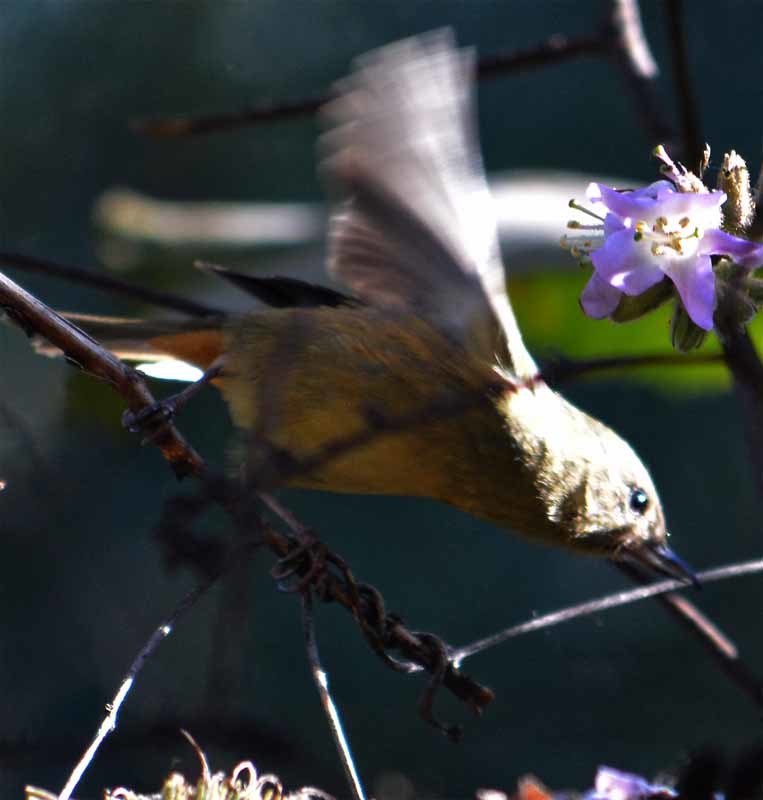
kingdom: Animalia
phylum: Chordata
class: Aves
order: Passeriformes
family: Thraupidae
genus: Diglossa
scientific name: Diglossa baritula
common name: Cinnamon-bellied flowerpiercer
